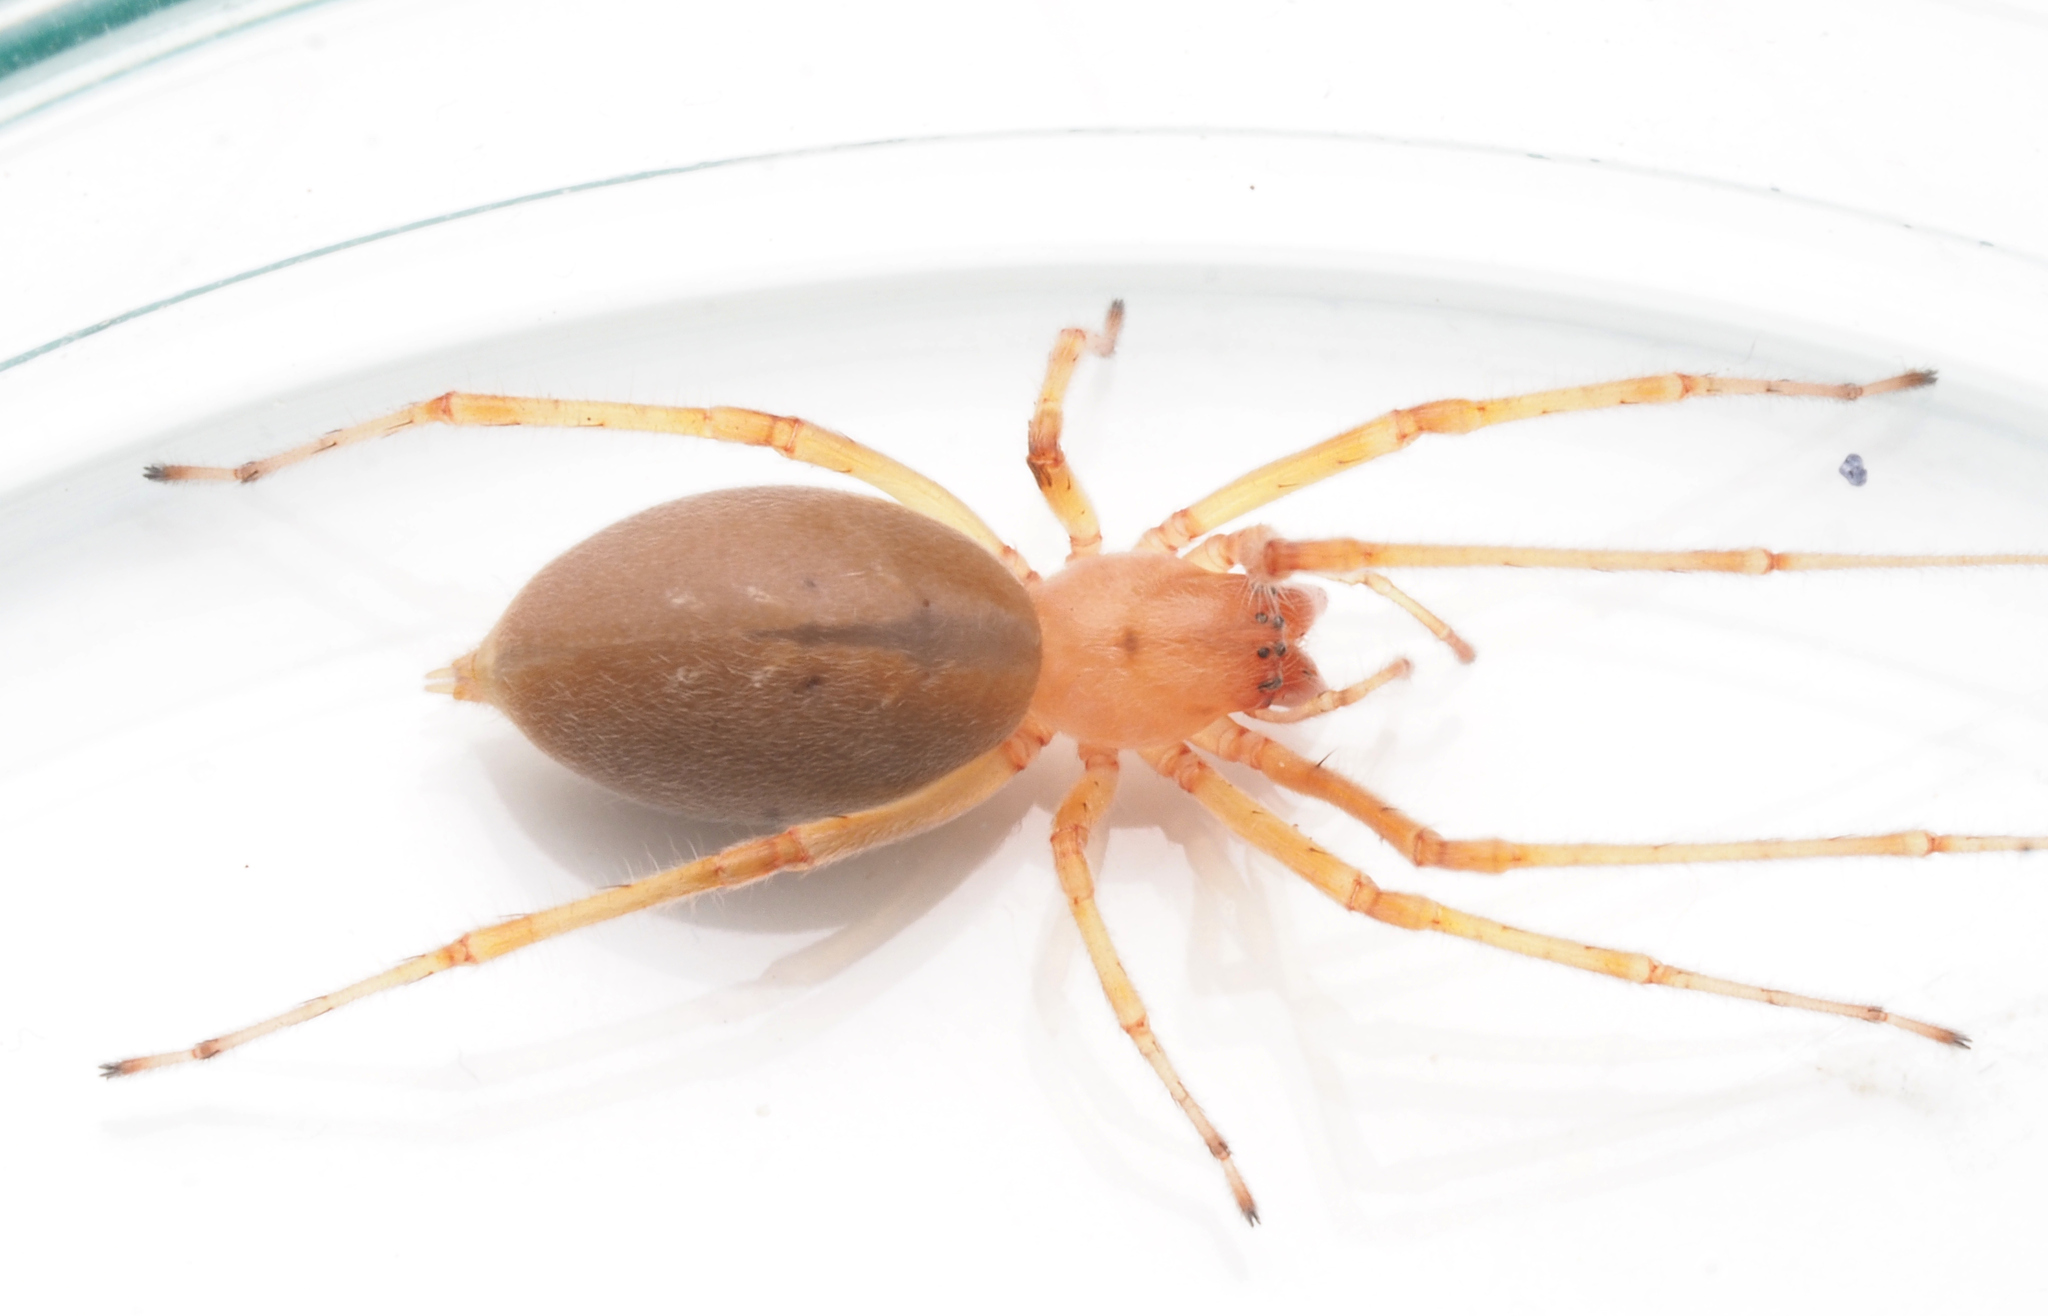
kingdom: Animalia
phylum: Arthropoda
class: Arachnida
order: Araneae
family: Cheiracanthiidae
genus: Calamoneta
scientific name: Calamoneta
